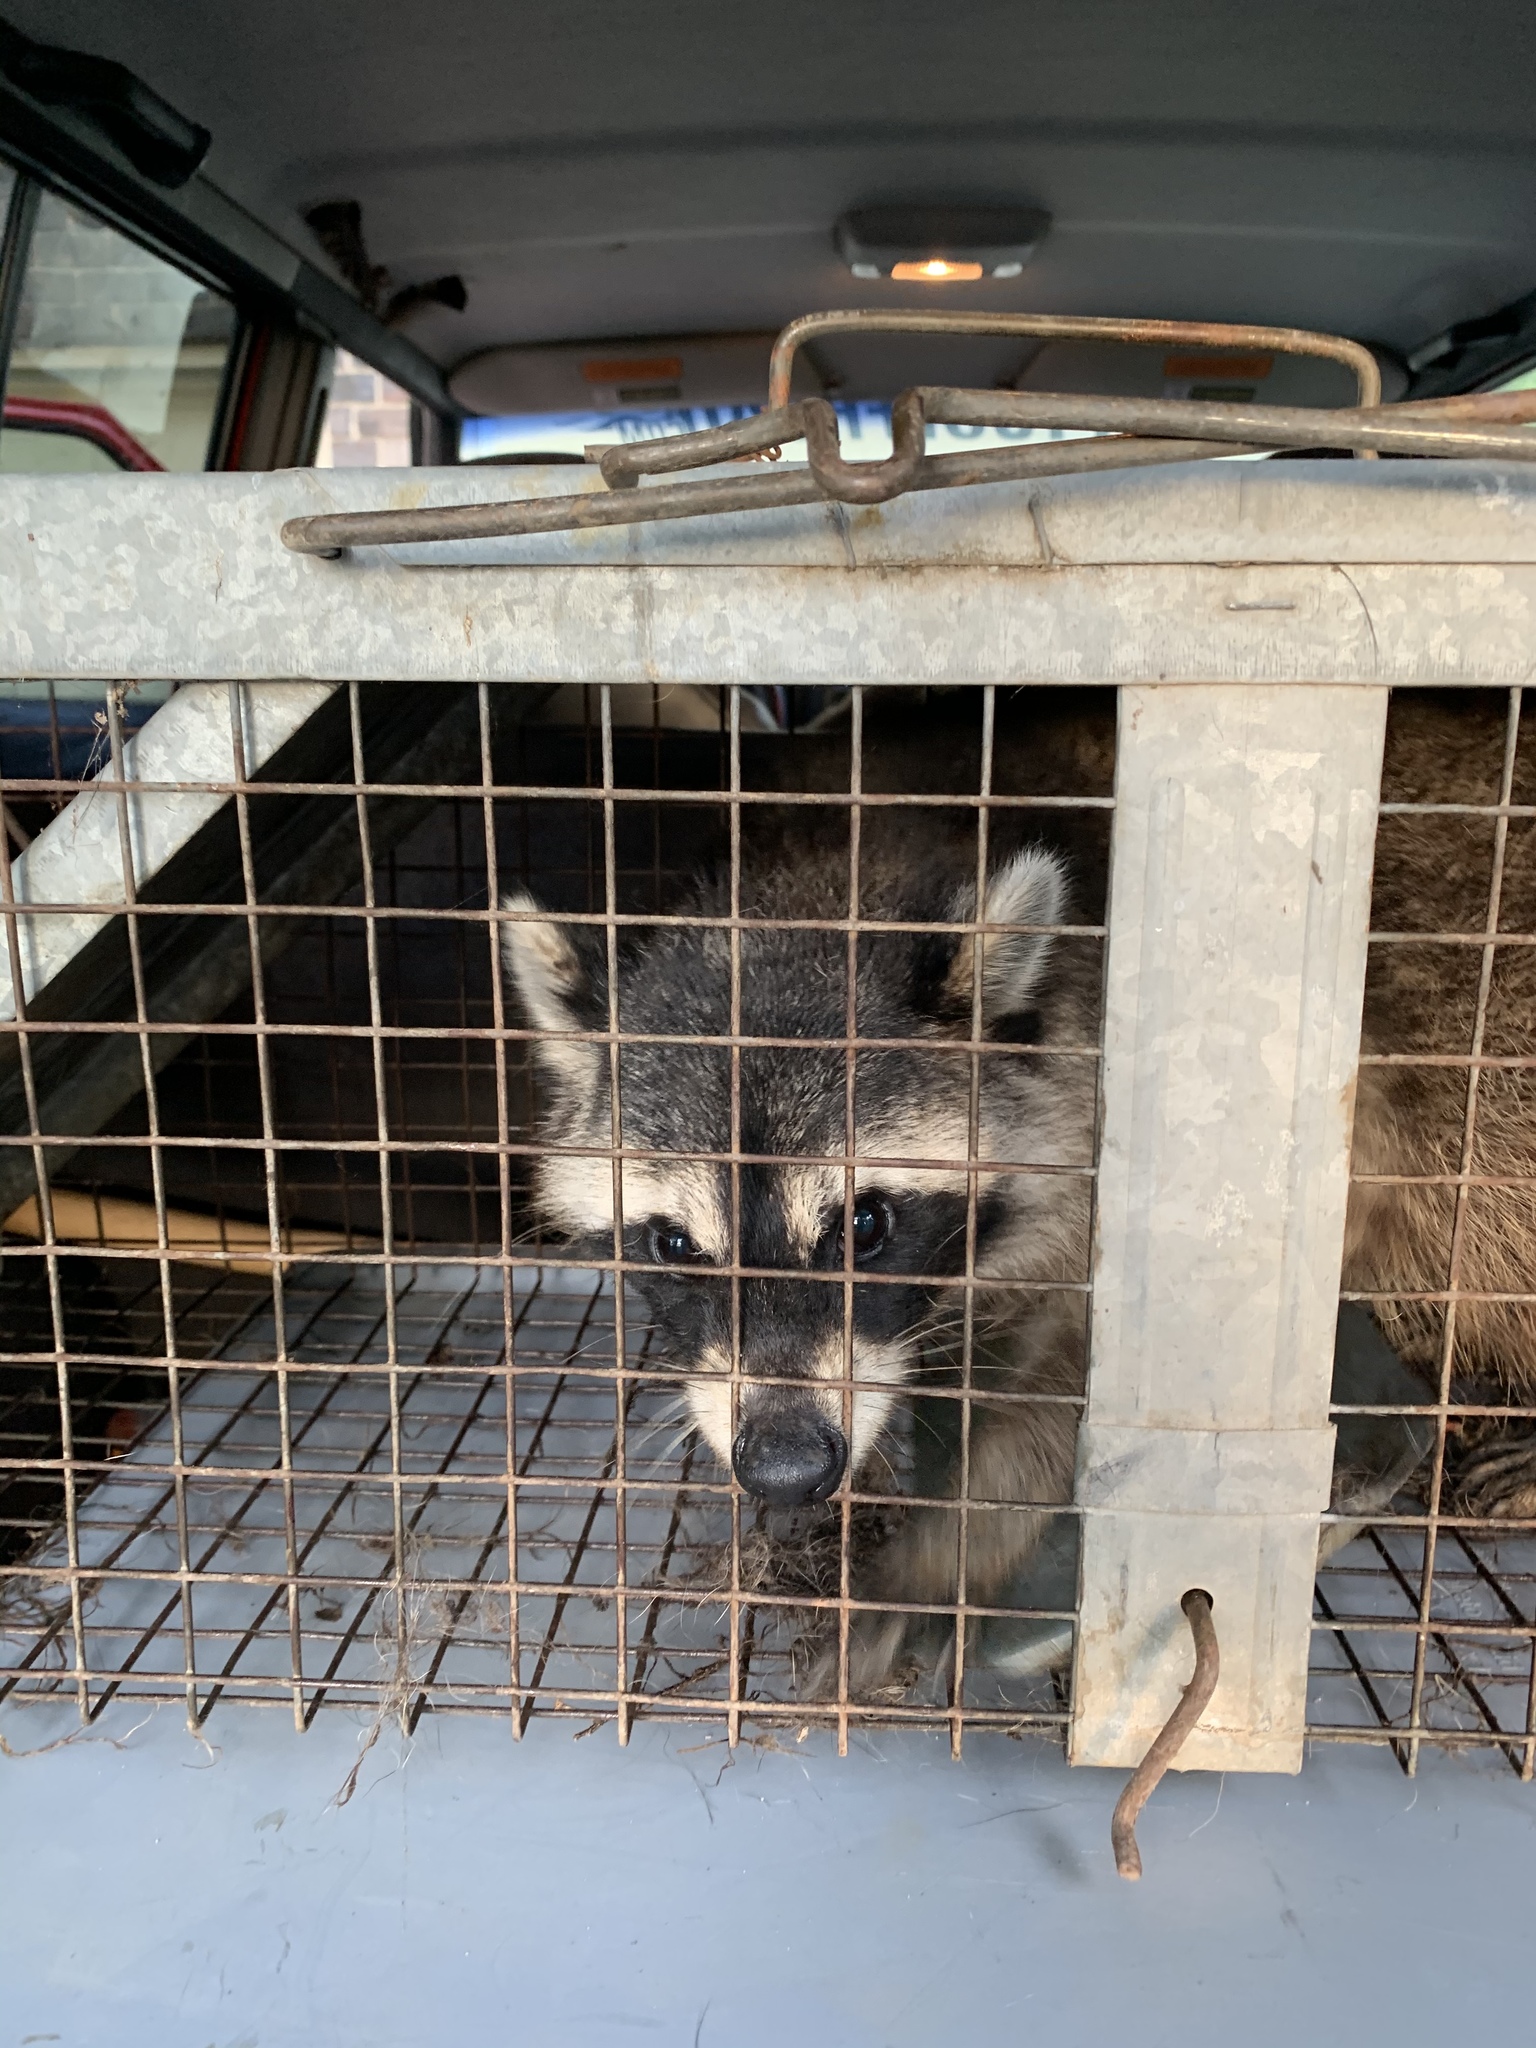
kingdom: Animalia
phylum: Chordata
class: Mammalia
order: Carnivora
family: Procyonidae
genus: Procyon
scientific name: Procyon lotor
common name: Raccoon
